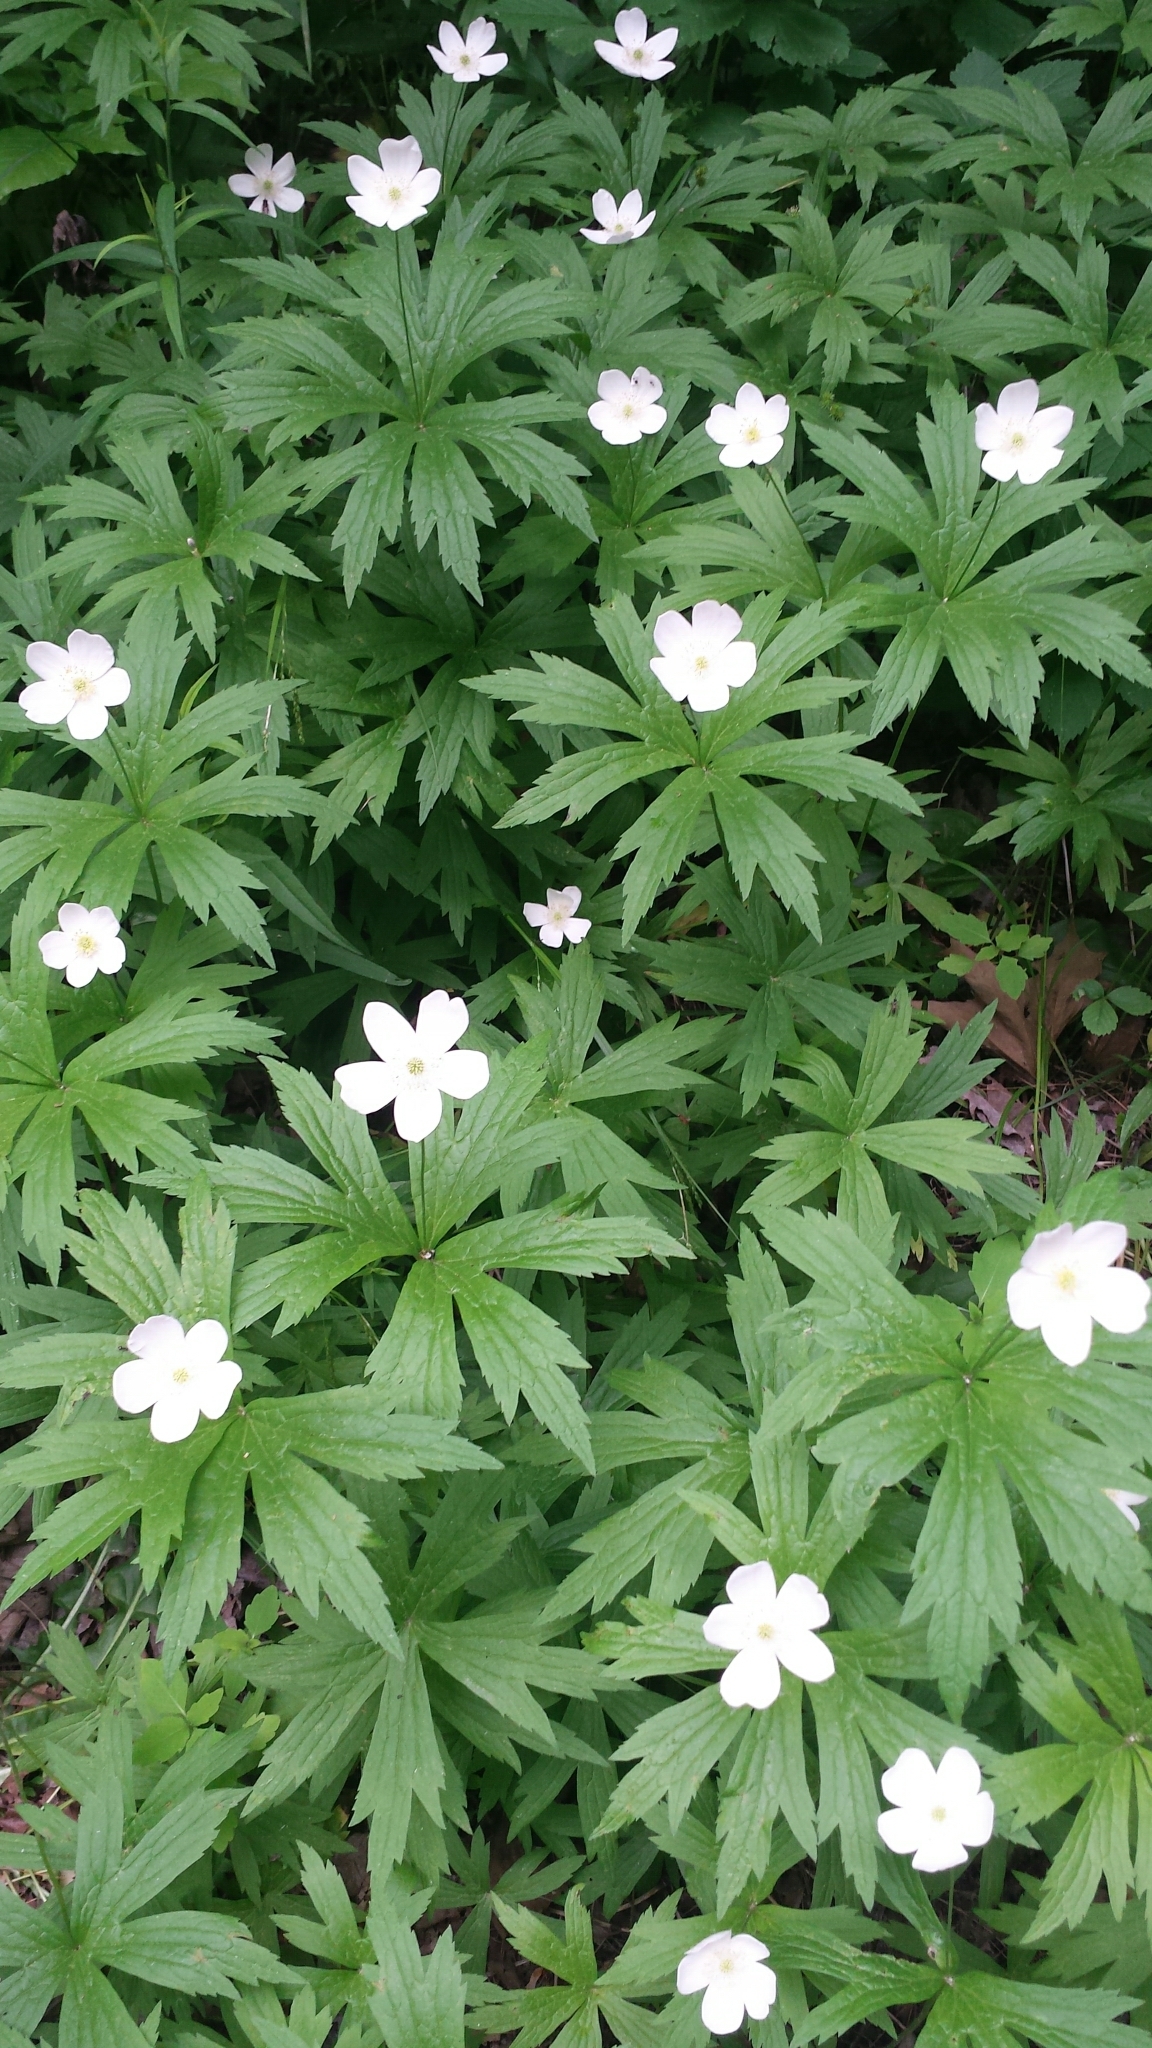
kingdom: Plantae
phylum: Tracheophyta
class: Magnoliopsida
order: Ranunculales
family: Ranunculaceae
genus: Anemonastrum
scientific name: Anemonastrum canadense
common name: Canada anemone
